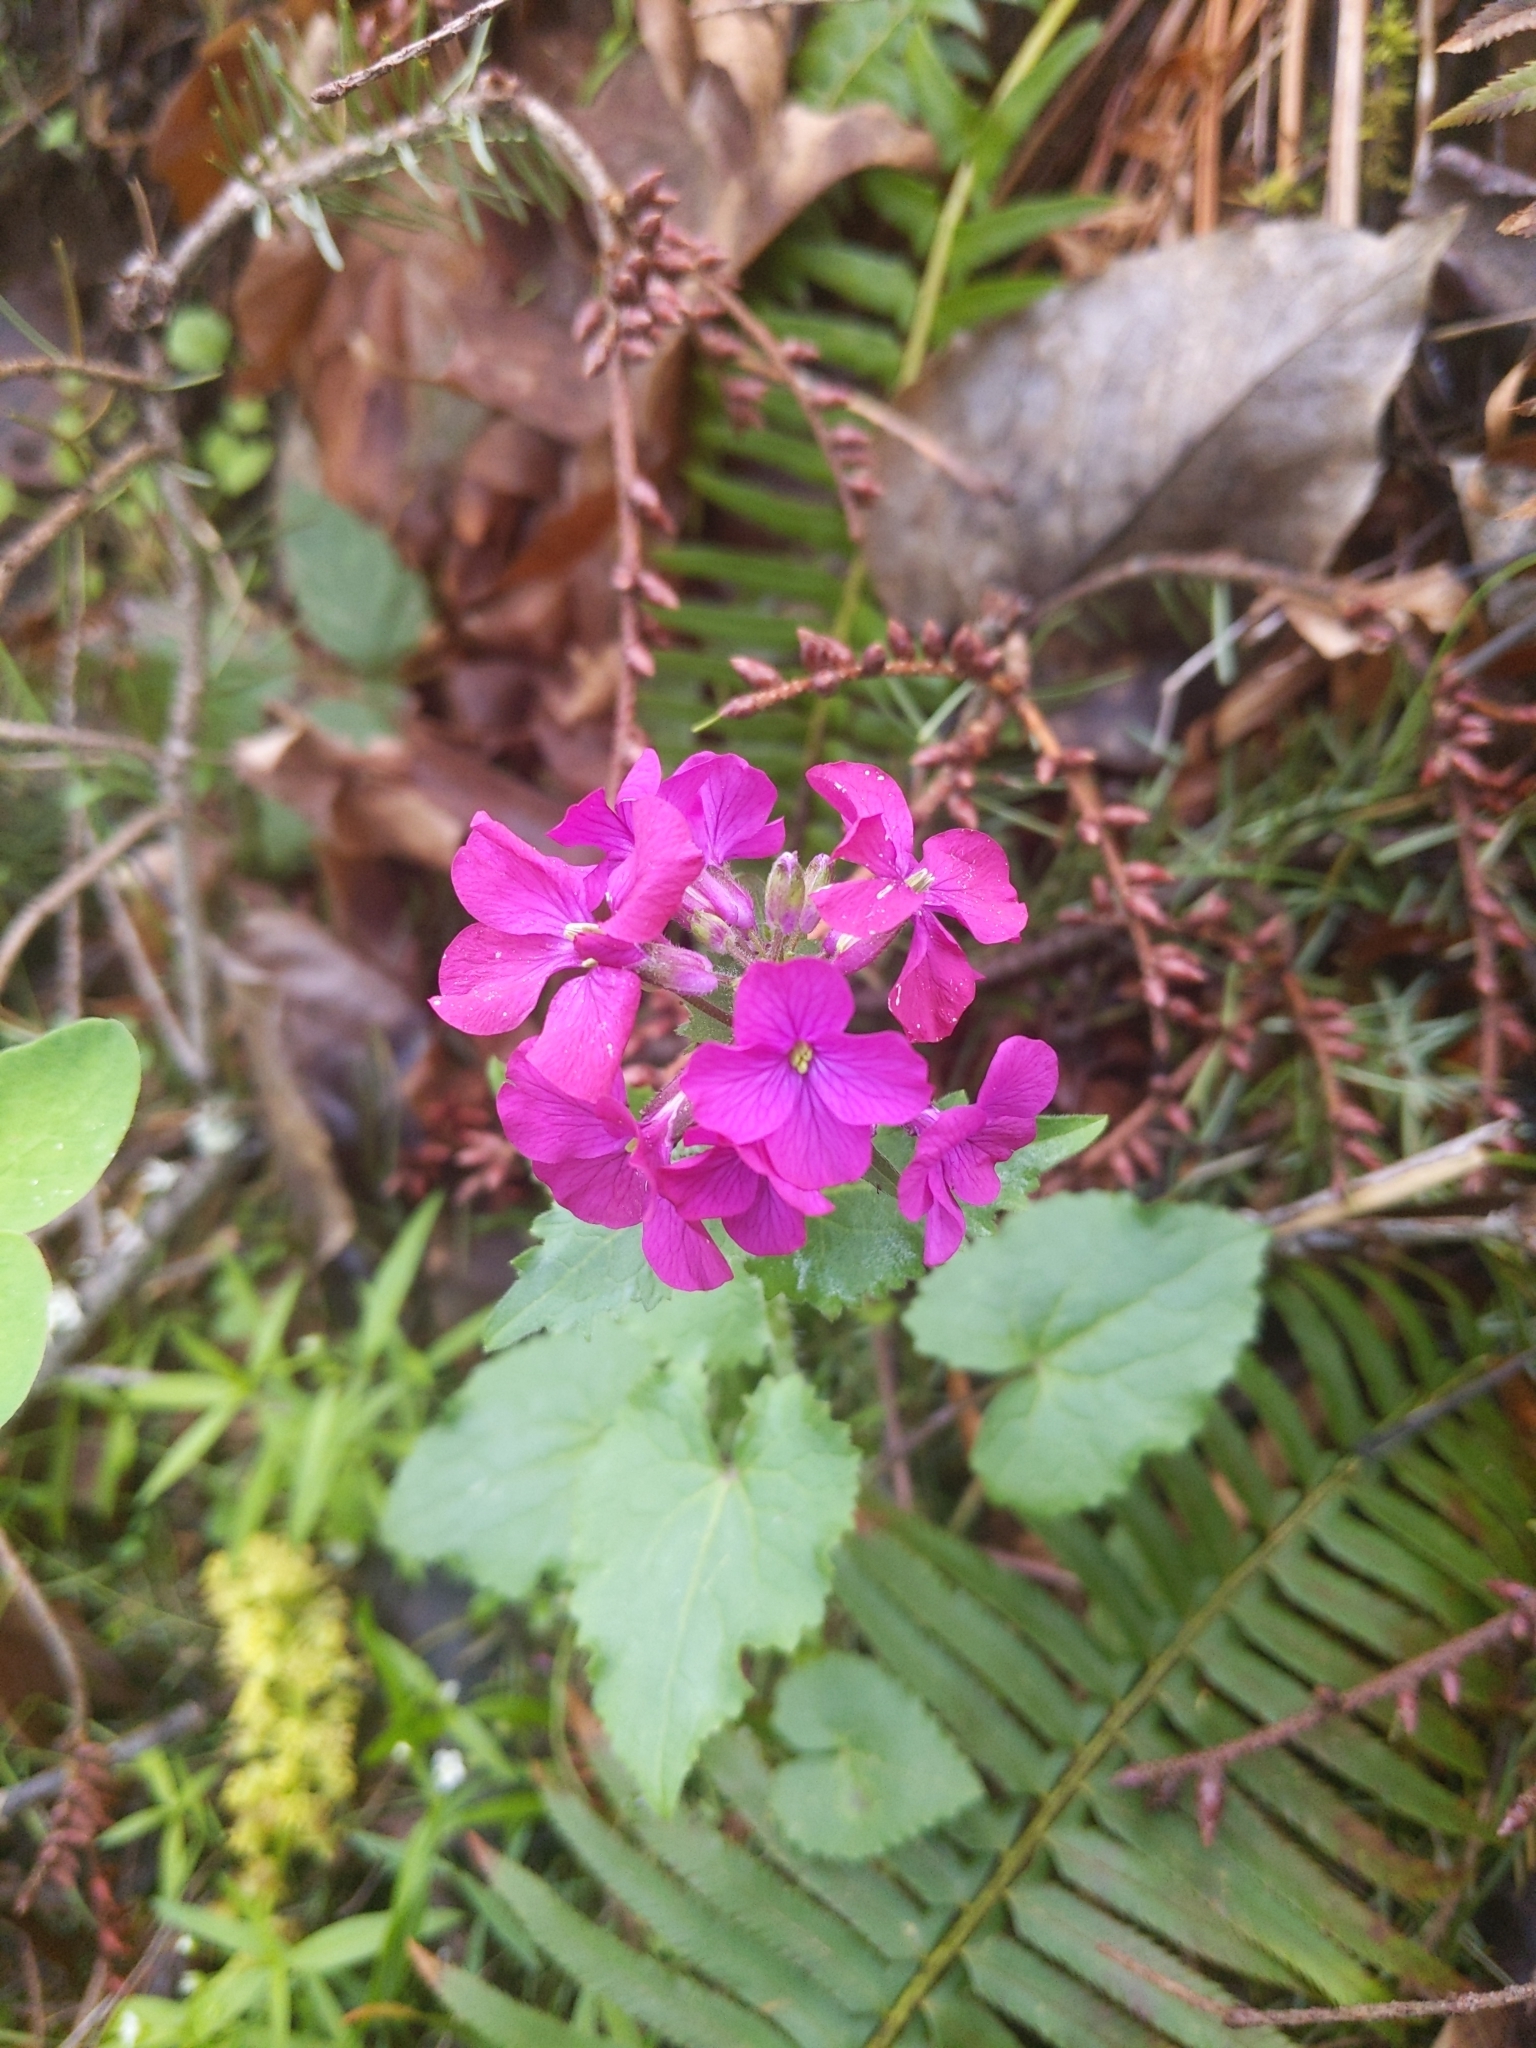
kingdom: Plantae
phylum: Tracheophyta
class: Magnoliopsida
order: Brassicales
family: Brassicaceae
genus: Lunaria
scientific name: Lunaria annua
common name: Honesty
